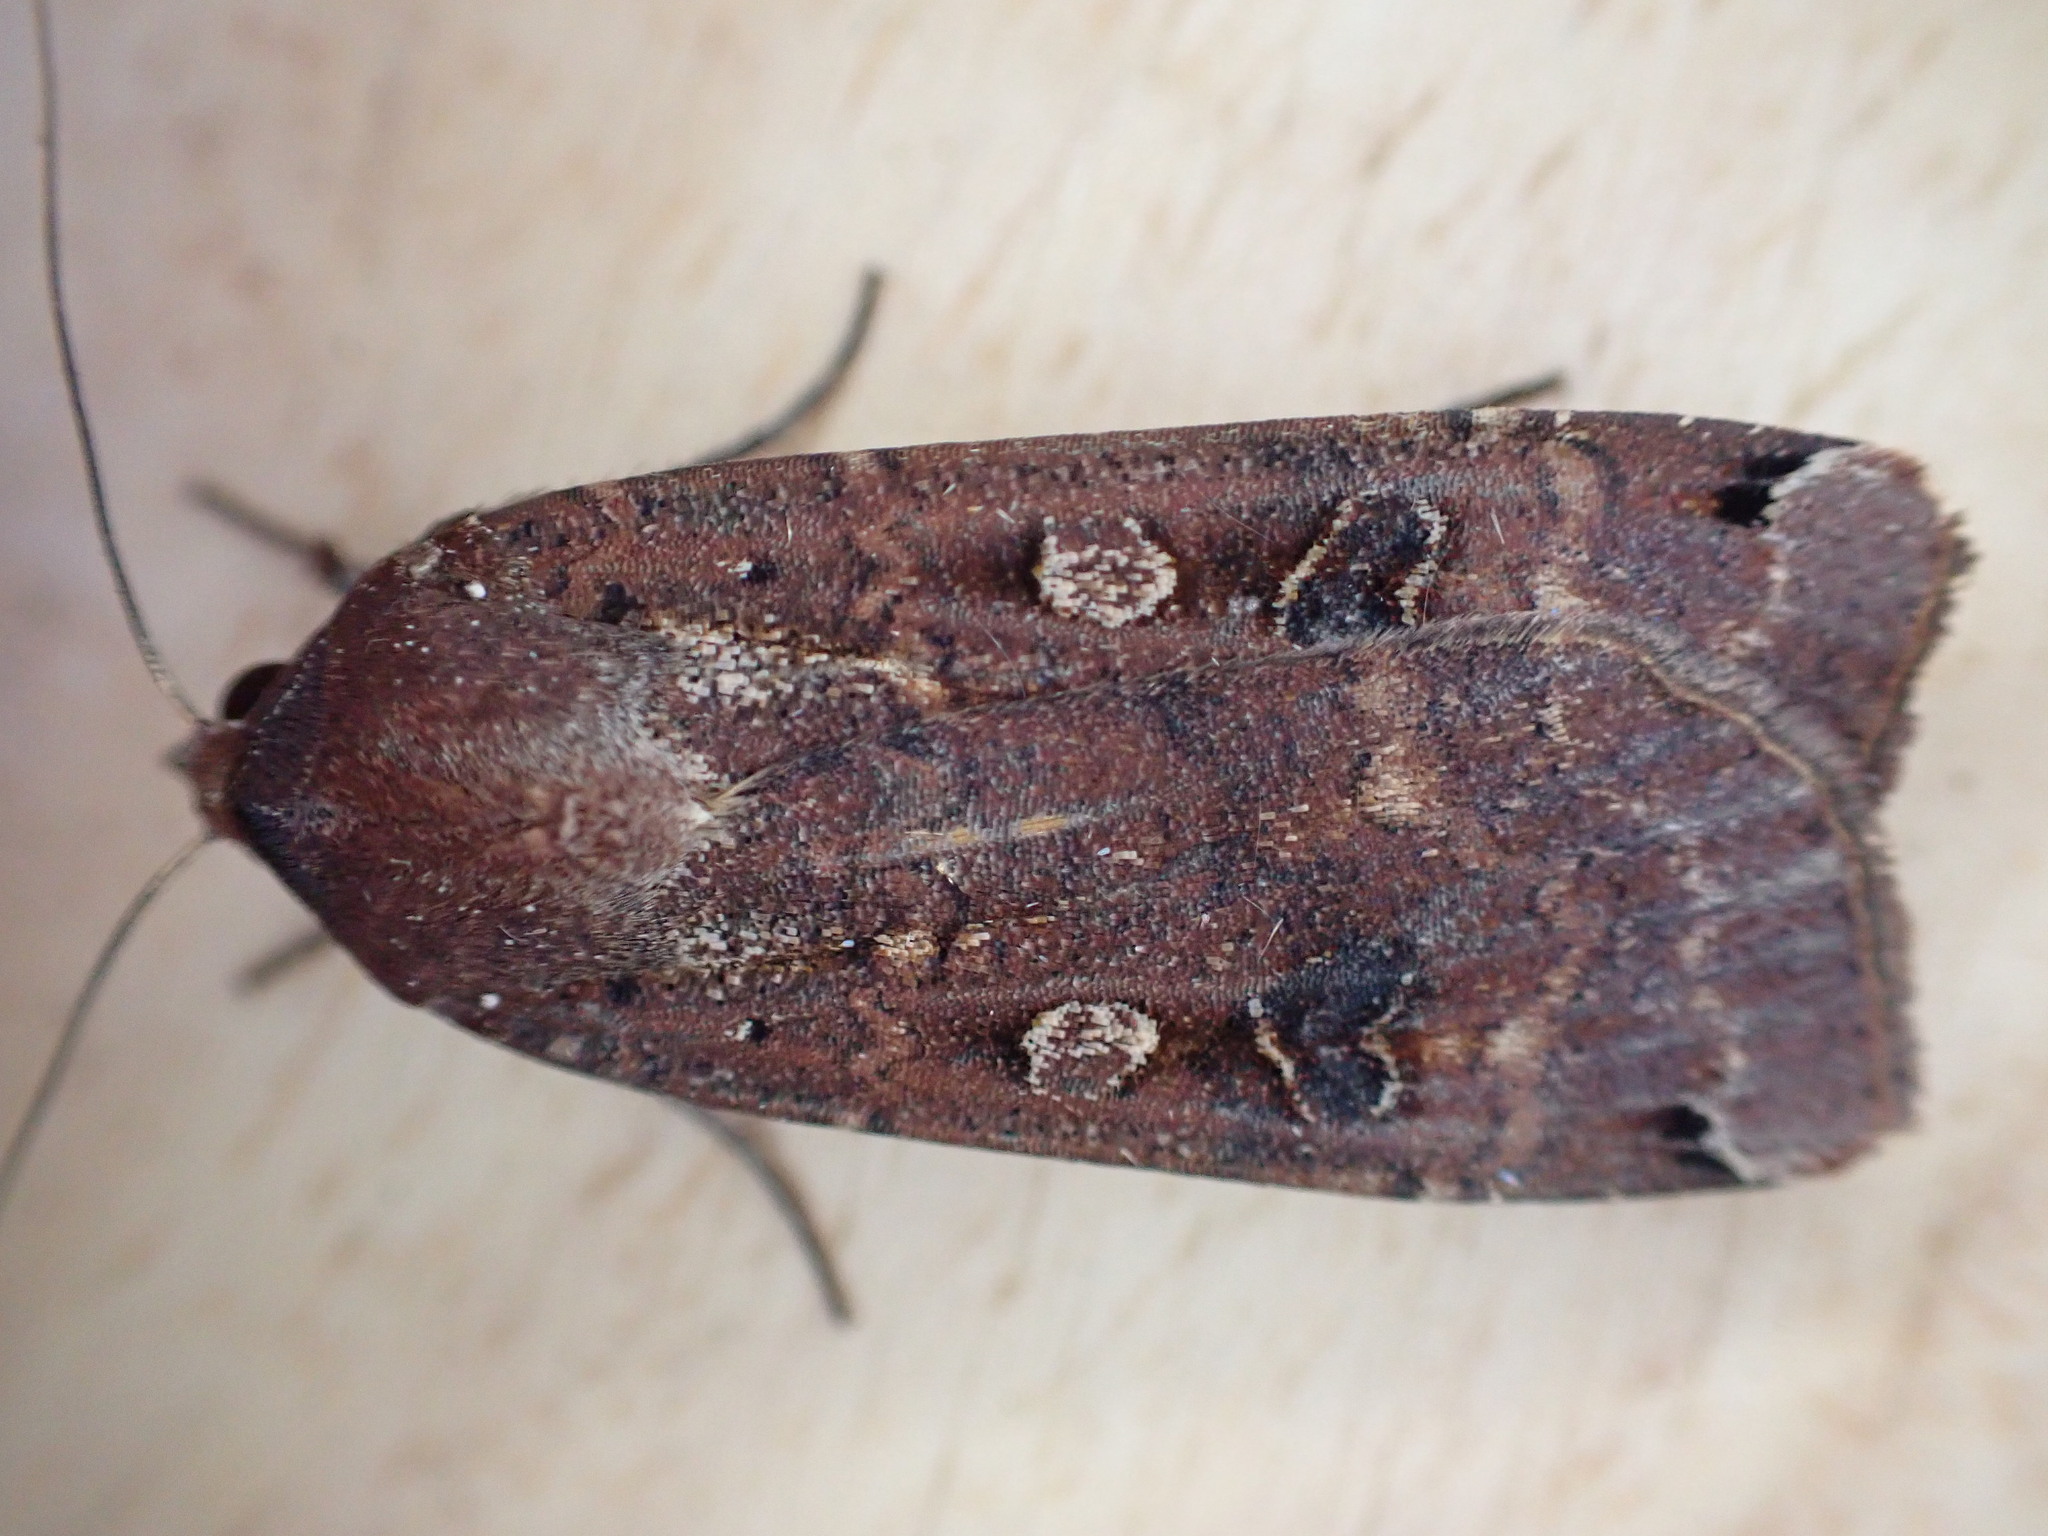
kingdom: Animalia
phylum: Arthropoda
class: Insecta
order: Lepidoptera
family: Noctuidae
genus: Noctua
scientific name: Noctua pronuba
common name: Large yellow underwing
